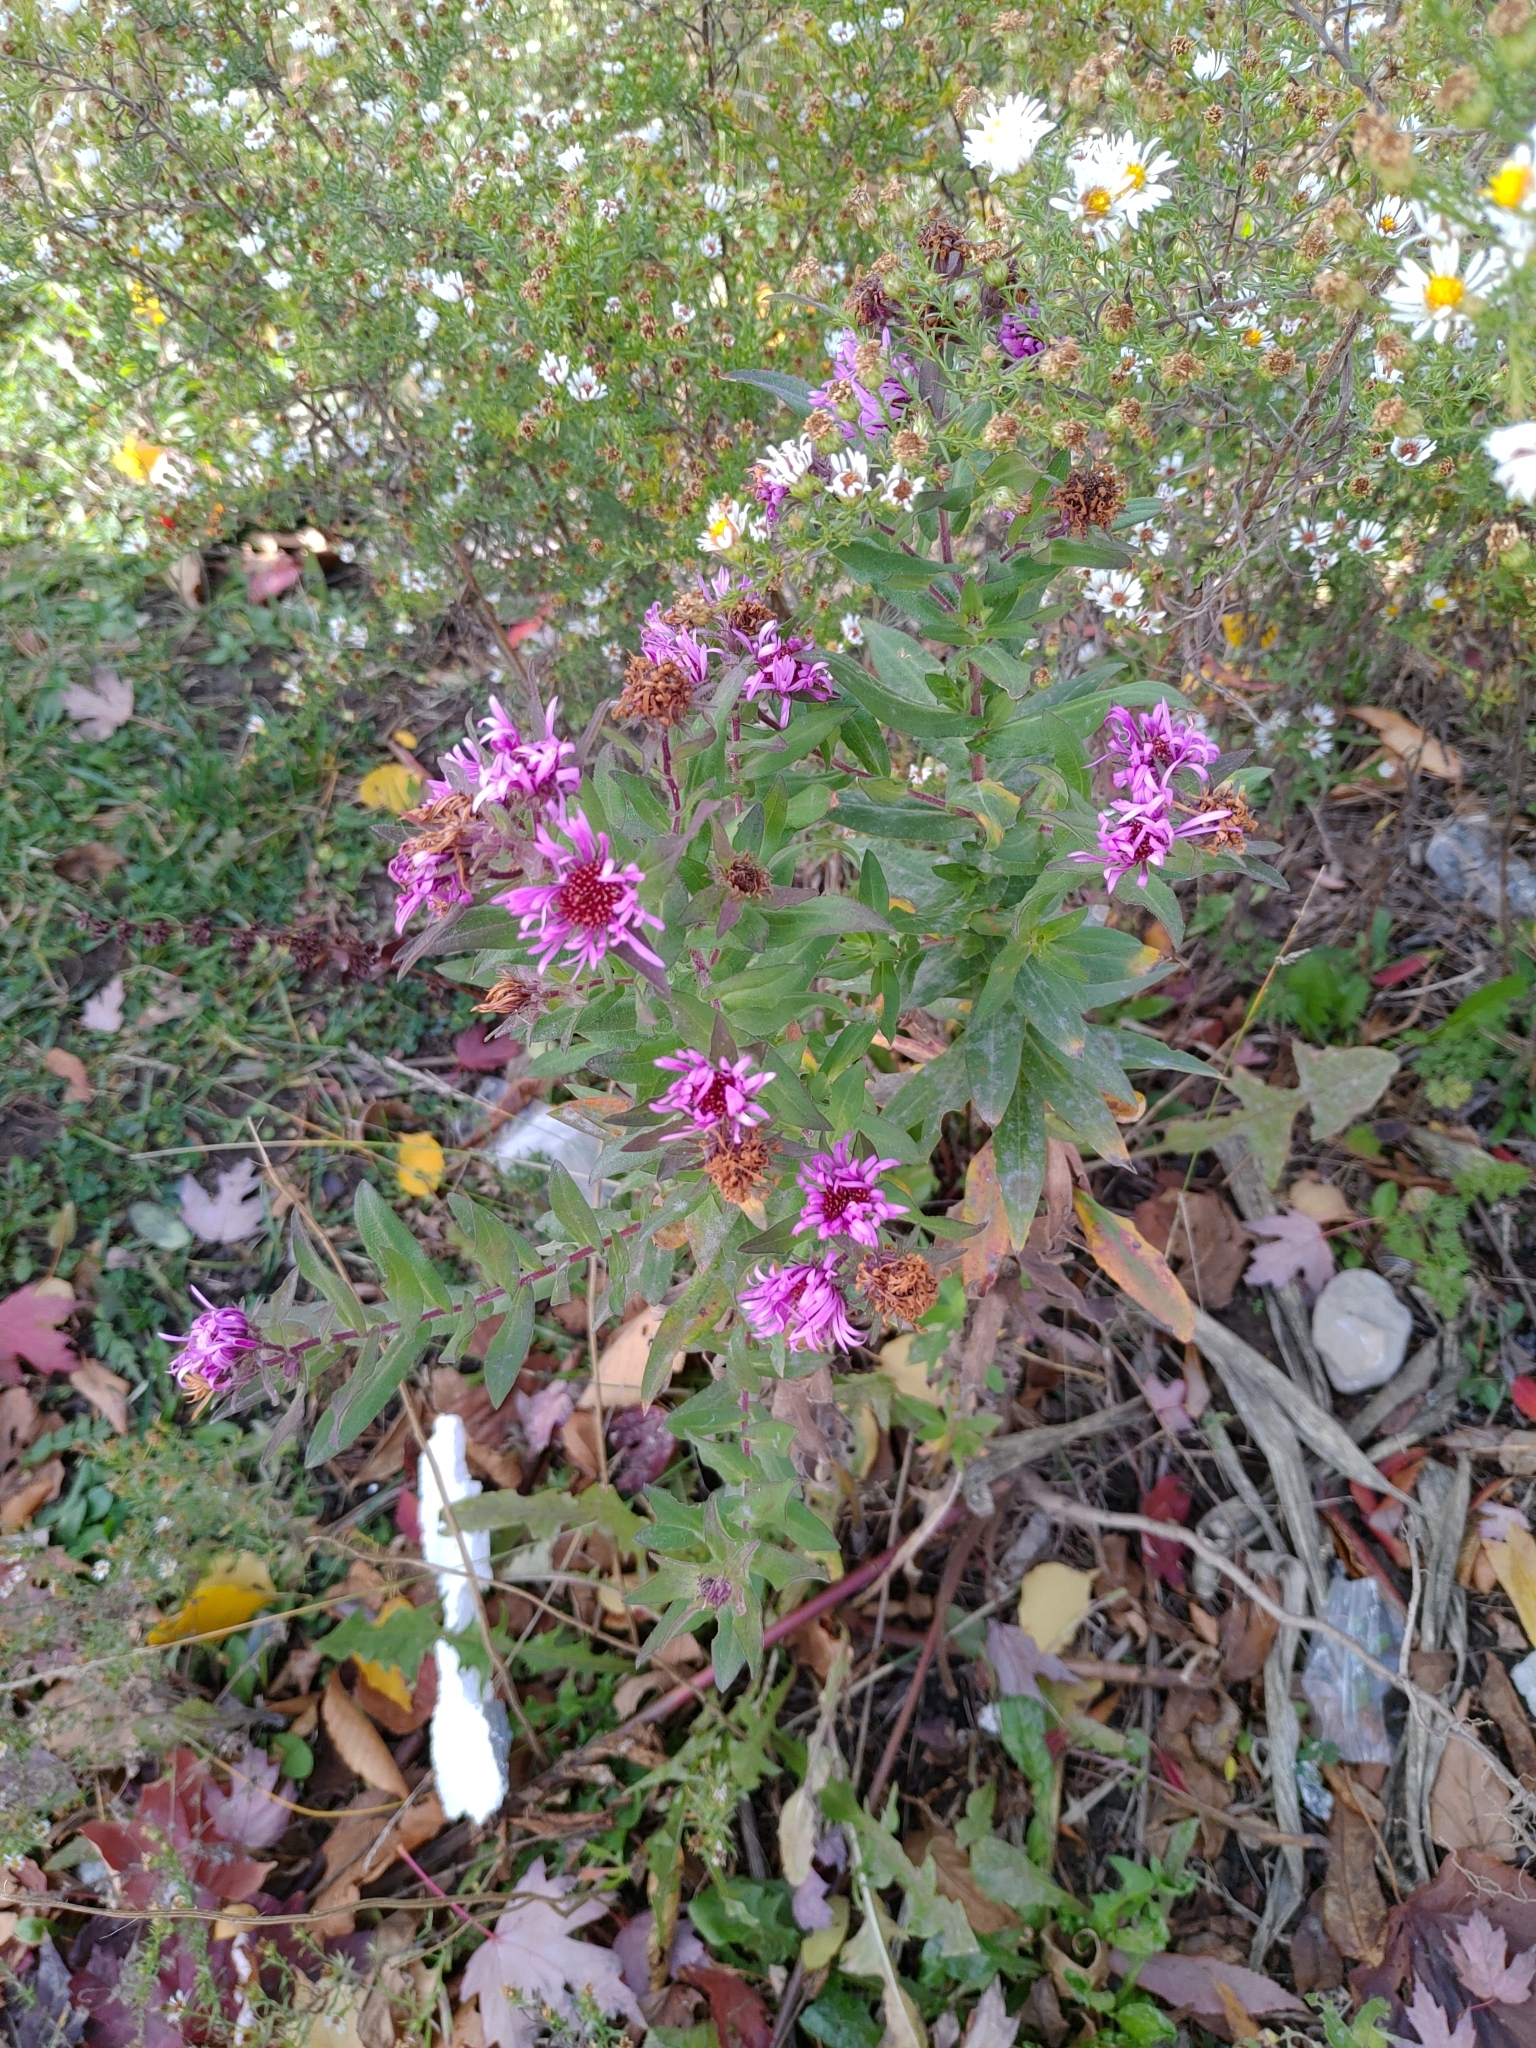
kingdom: Plantae
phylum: Tracheophyta
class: Magnoliopsida
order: Asterales
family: Asteraceae
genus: Symphyotrichum
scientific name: Symphyotrichum novae-angliae
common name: Michaelmas daisy
